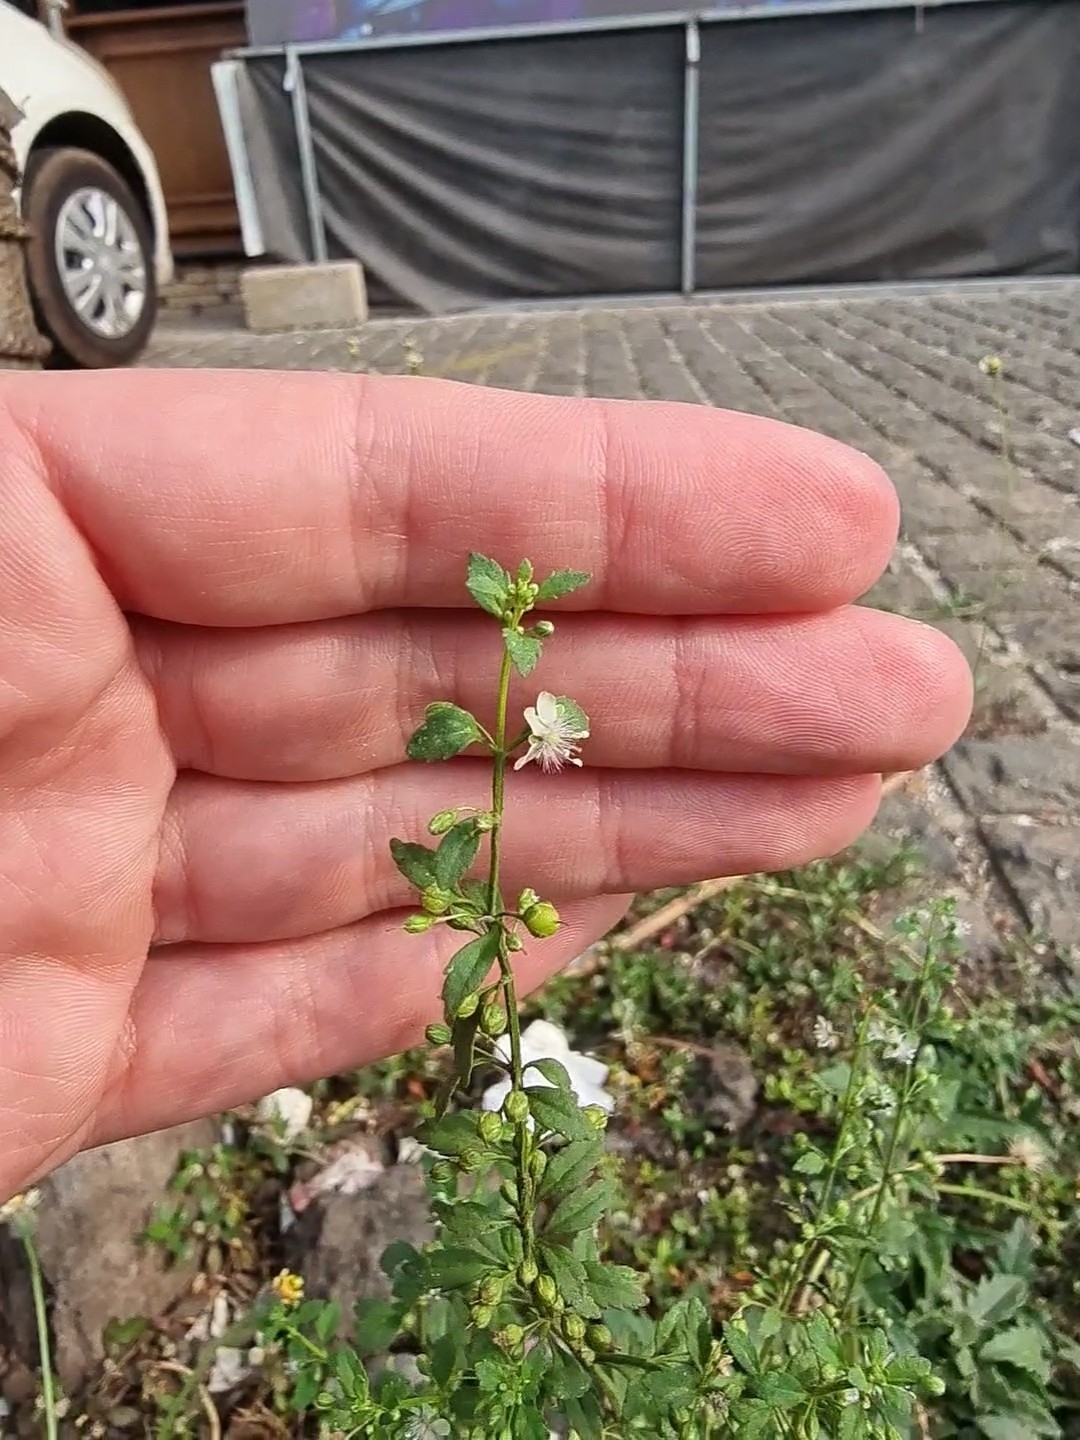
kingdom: Plantae
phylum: Tracheophyta
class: Magnoliopsida
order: Lamiales
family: Plantaginaceae
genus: Scoparia
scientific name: Scoparia dulcis
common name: Scoparia-weed
